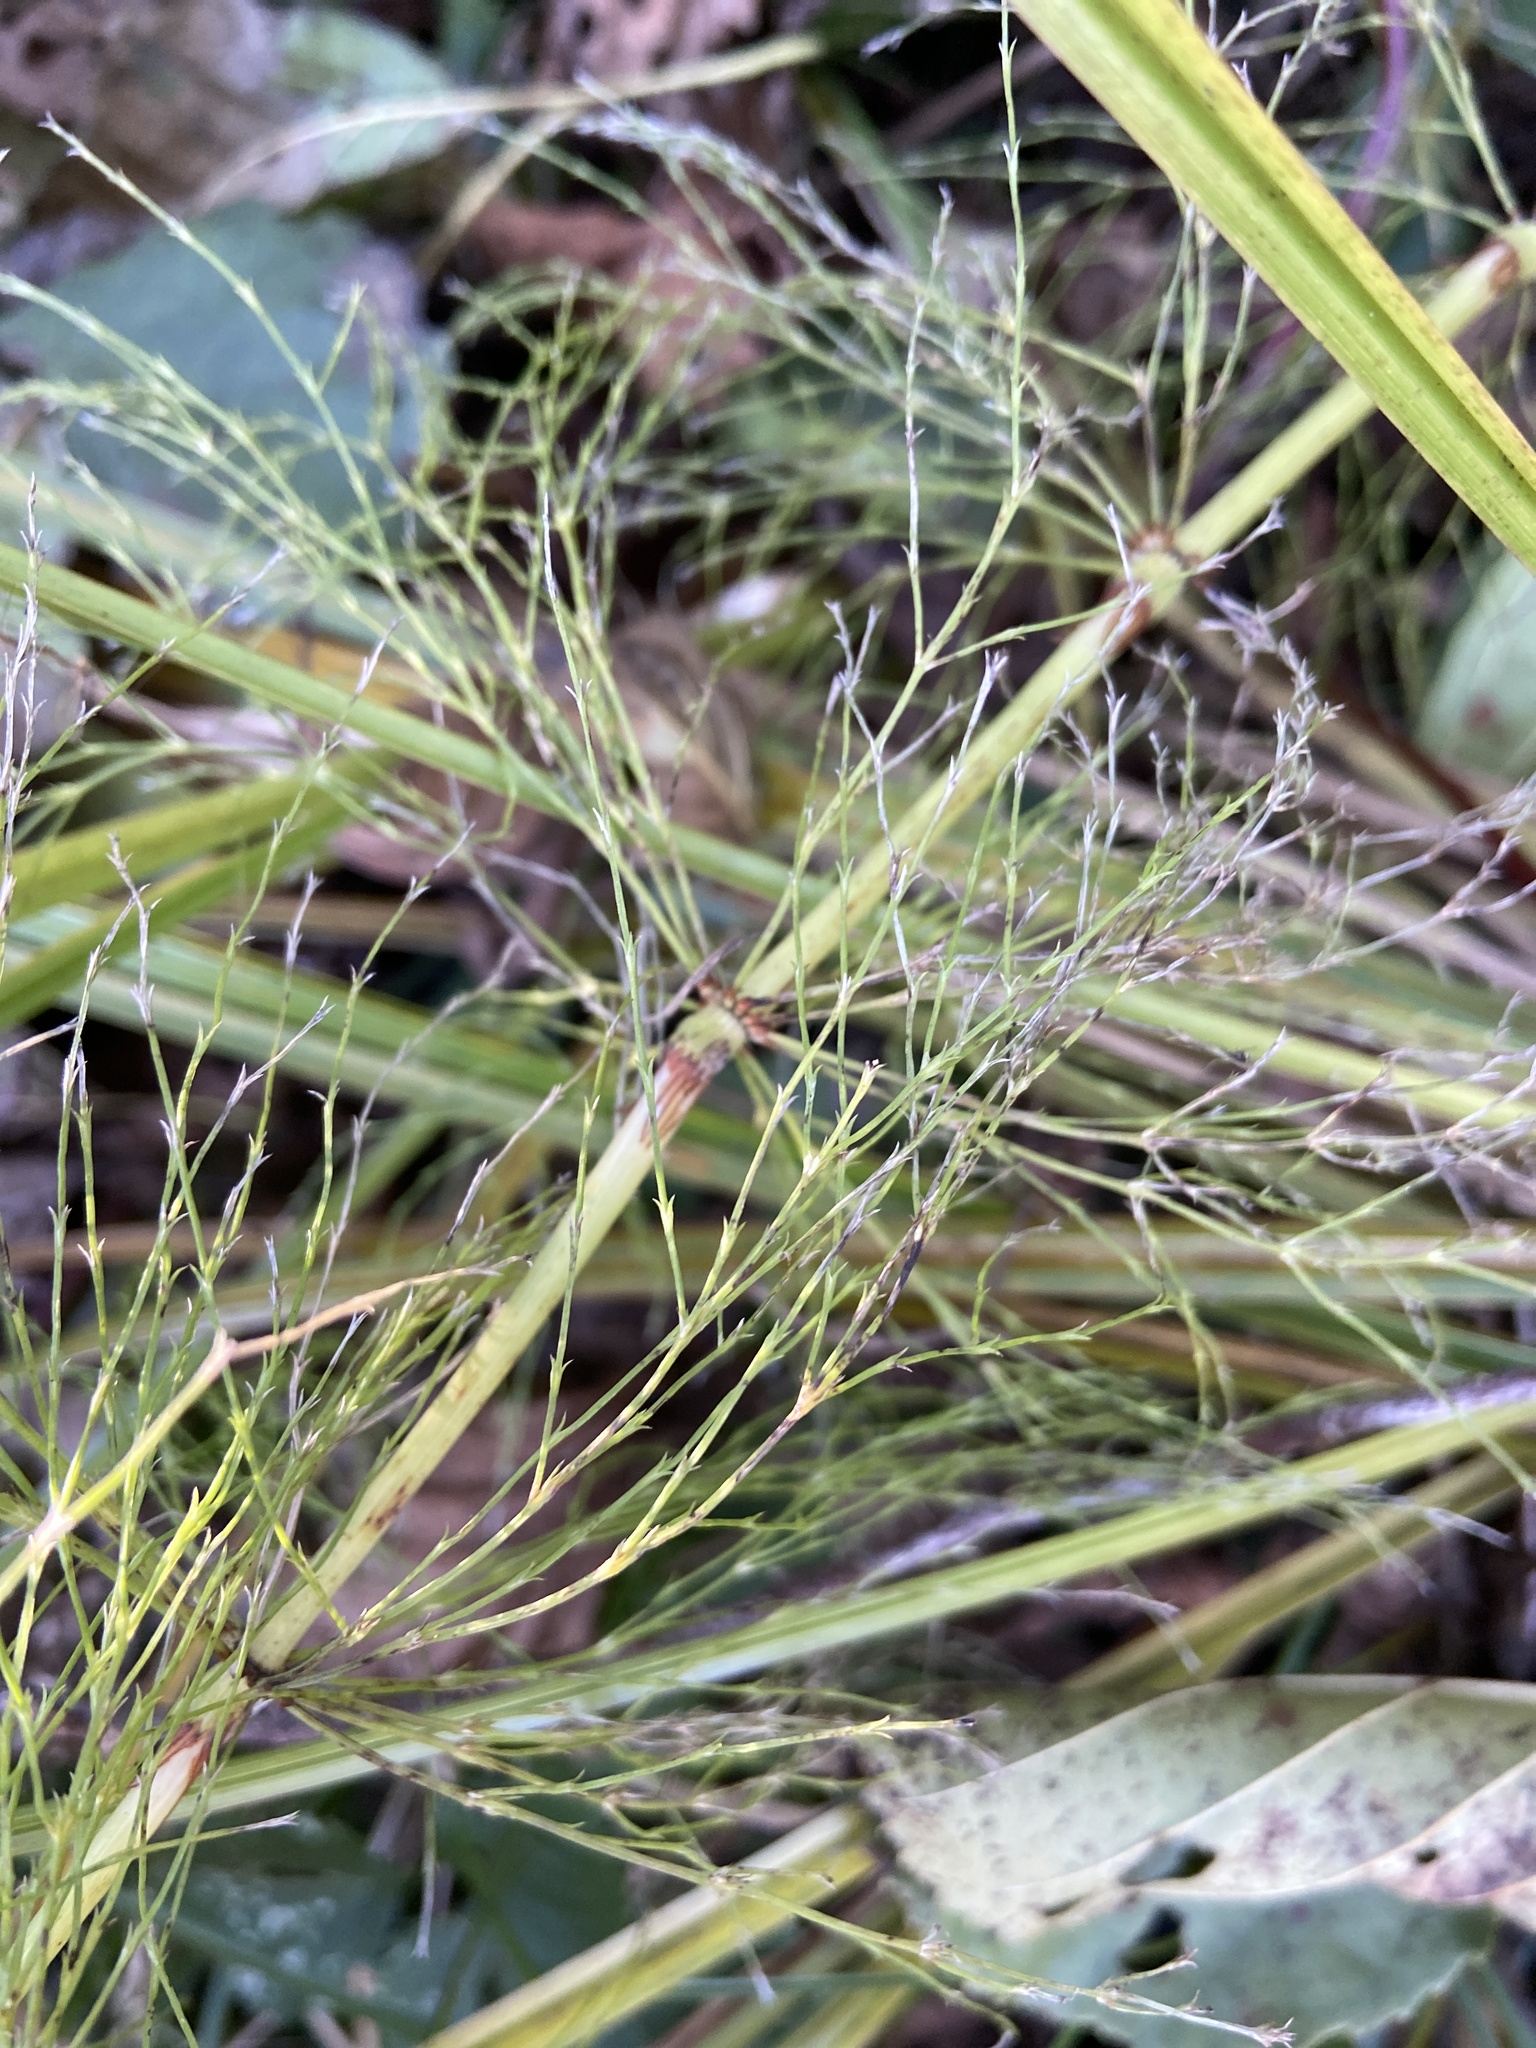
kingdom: Plantae
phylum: Tracheophyta
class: Polypodiopsida
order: Equisetales
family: Equisetaceae
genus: Equisetum
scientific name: Equisetum sylvaticum
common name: Wood horsetail
